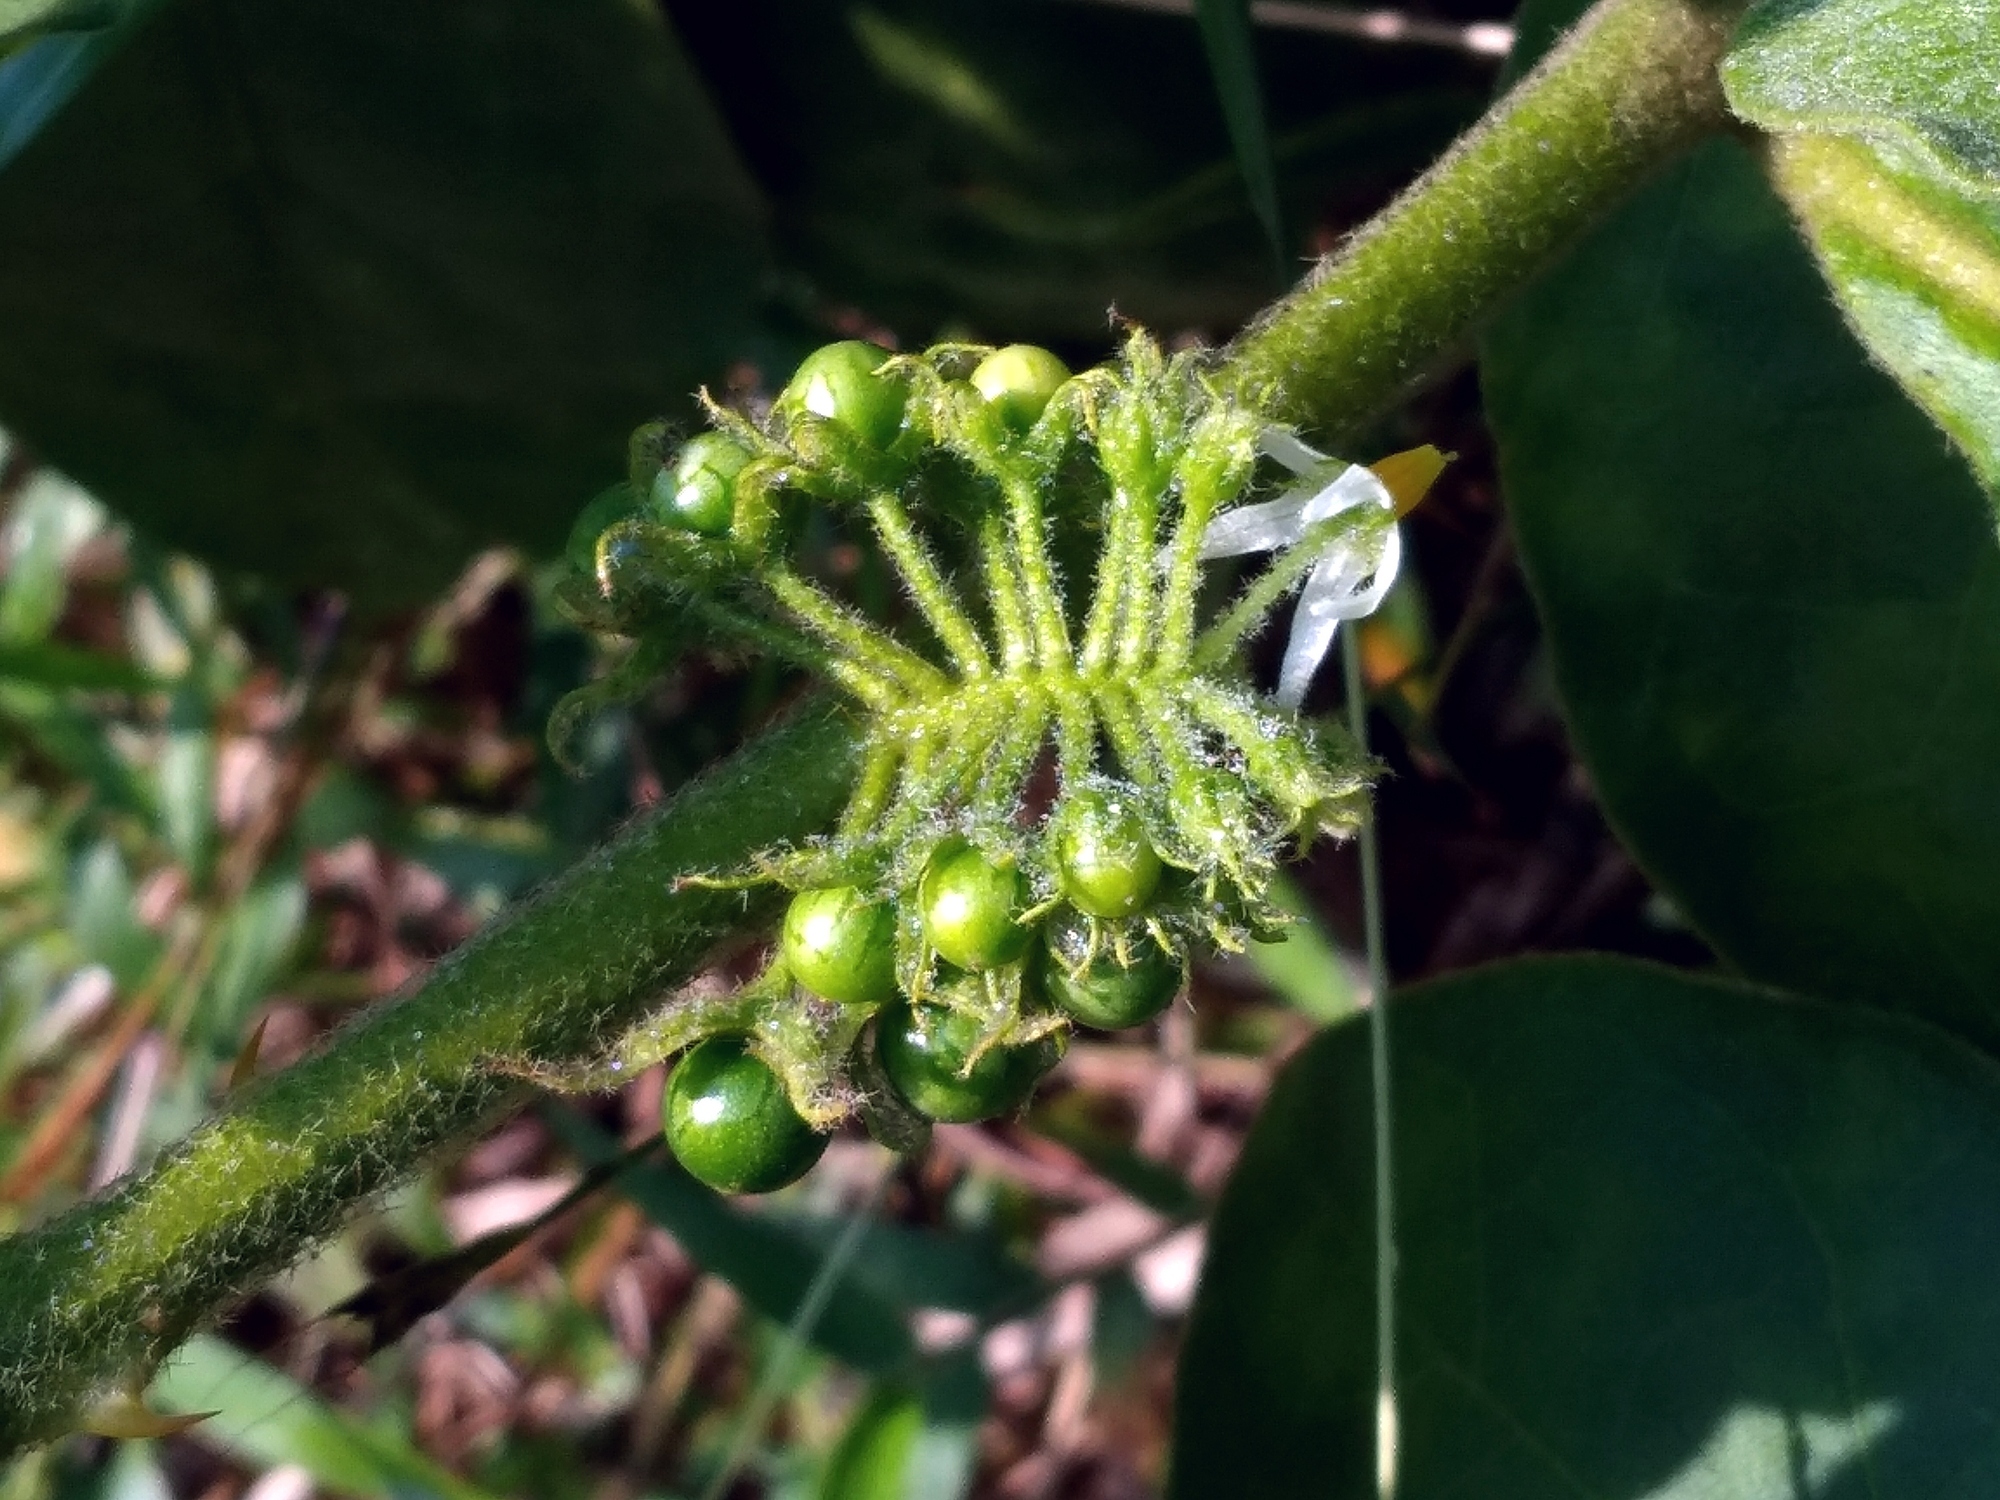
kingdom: Plantae
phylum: Tracheophyta
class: Magnoliopsida
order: Solanales
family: Solanaceae
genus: Solanum
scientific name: Solanum jamaicense
